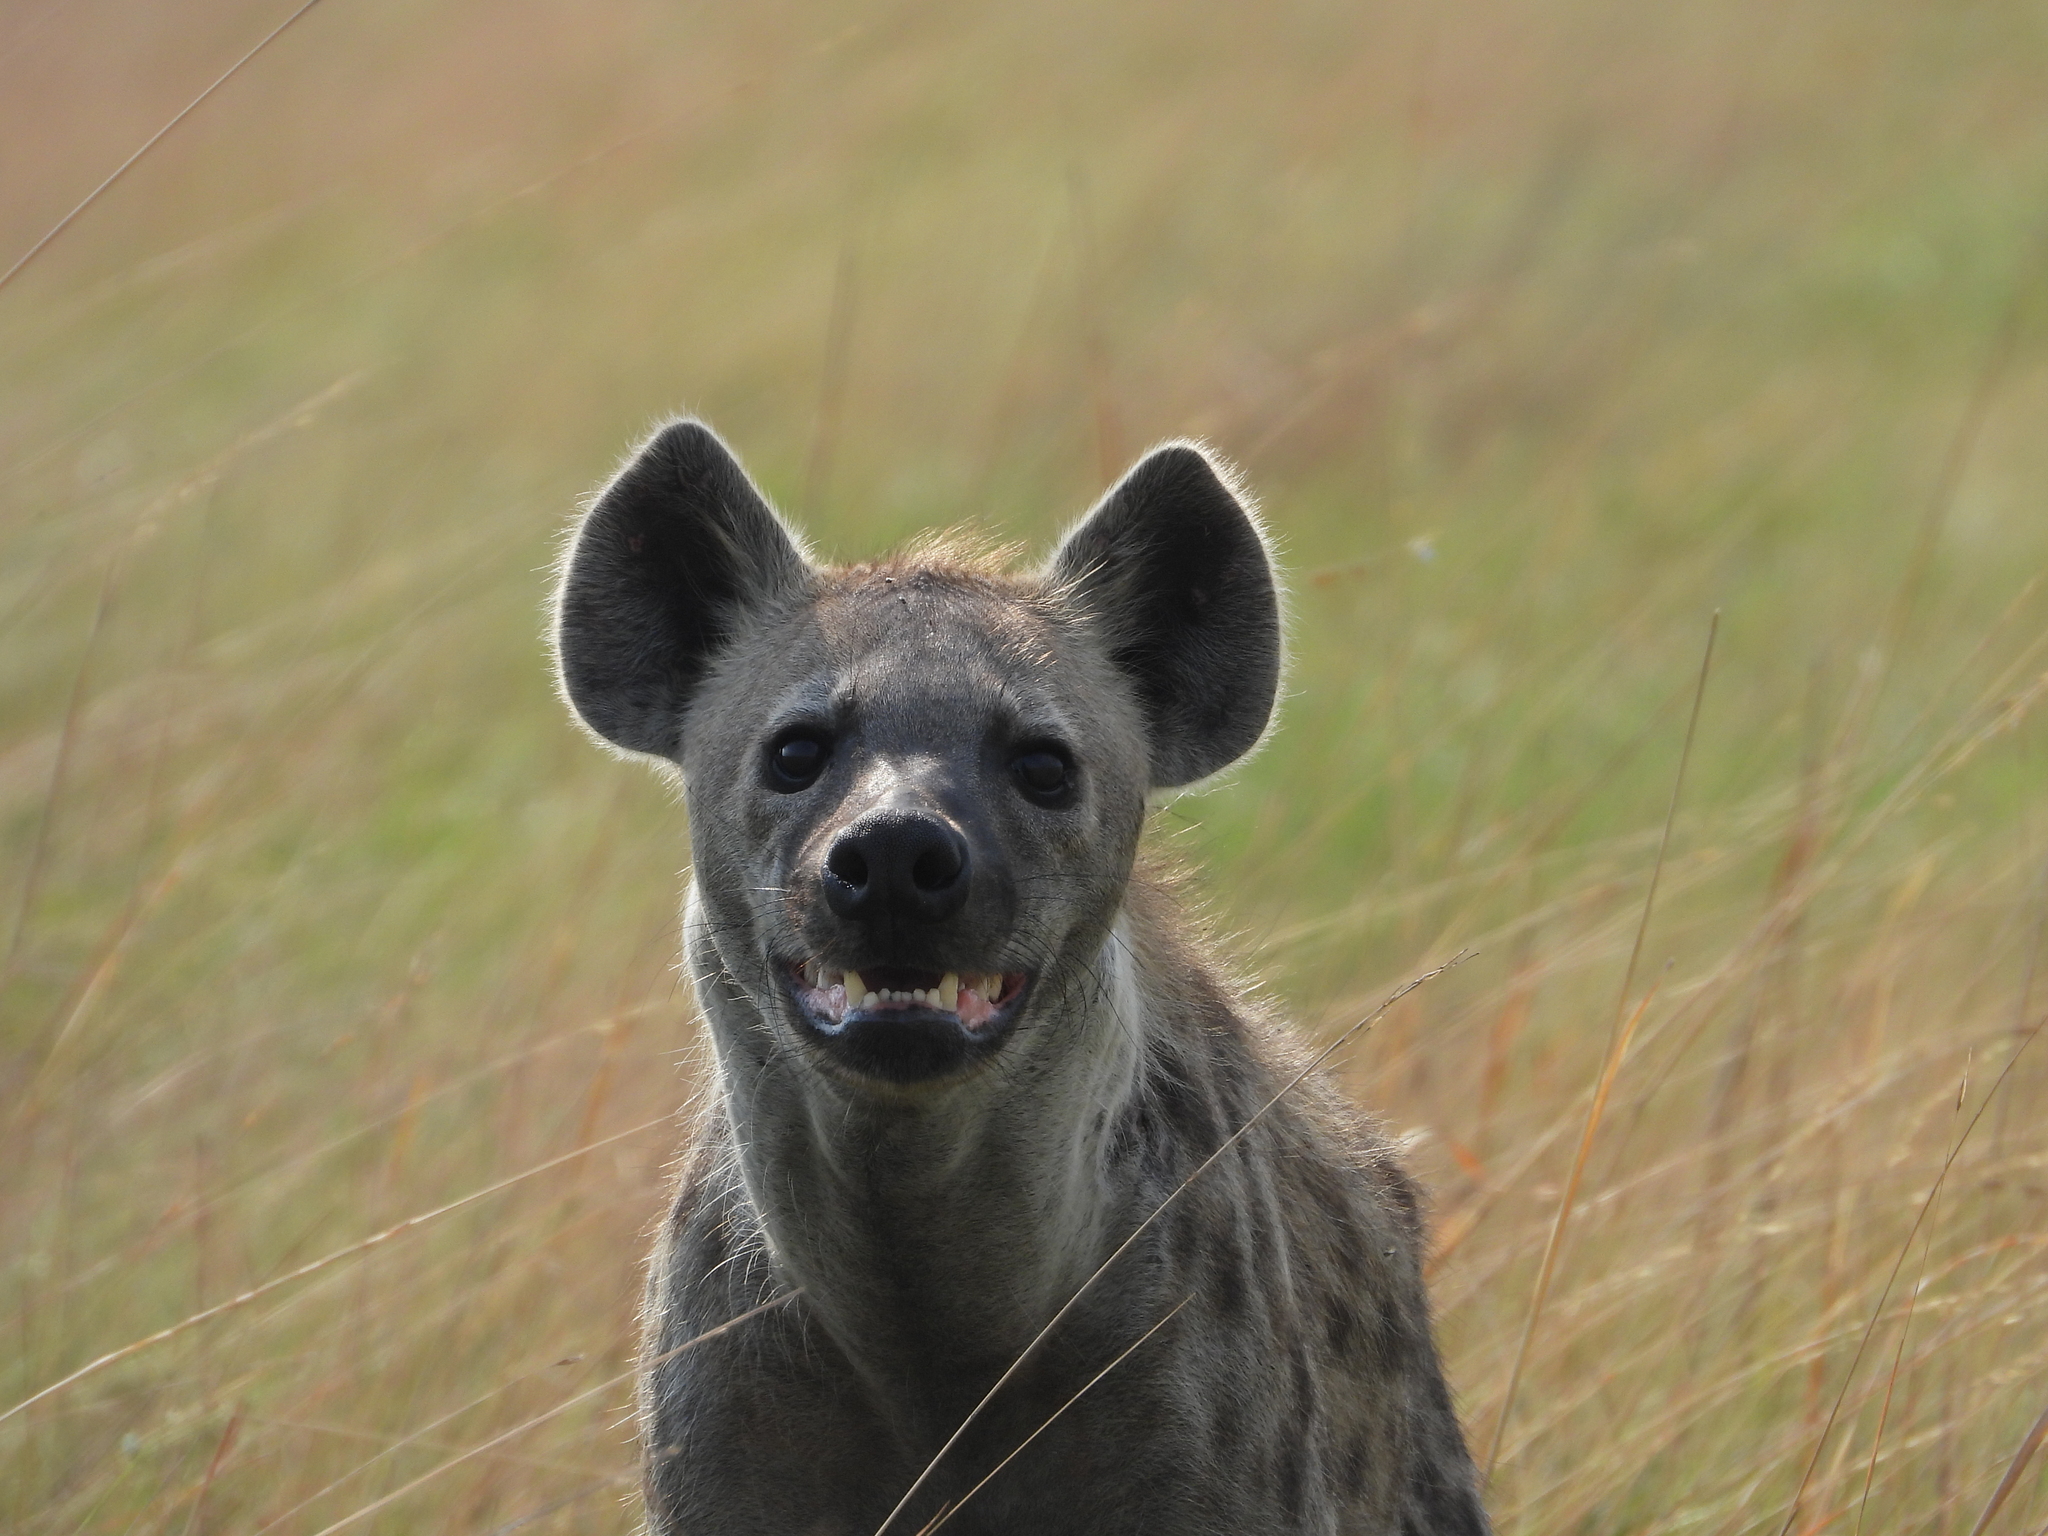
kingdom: Animalia
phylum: Chordata
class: Mammalia
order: Carnivora
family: Hyaenidae
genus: Crocuta
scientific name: Crocuta crocuta
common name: Spotted hyaena
